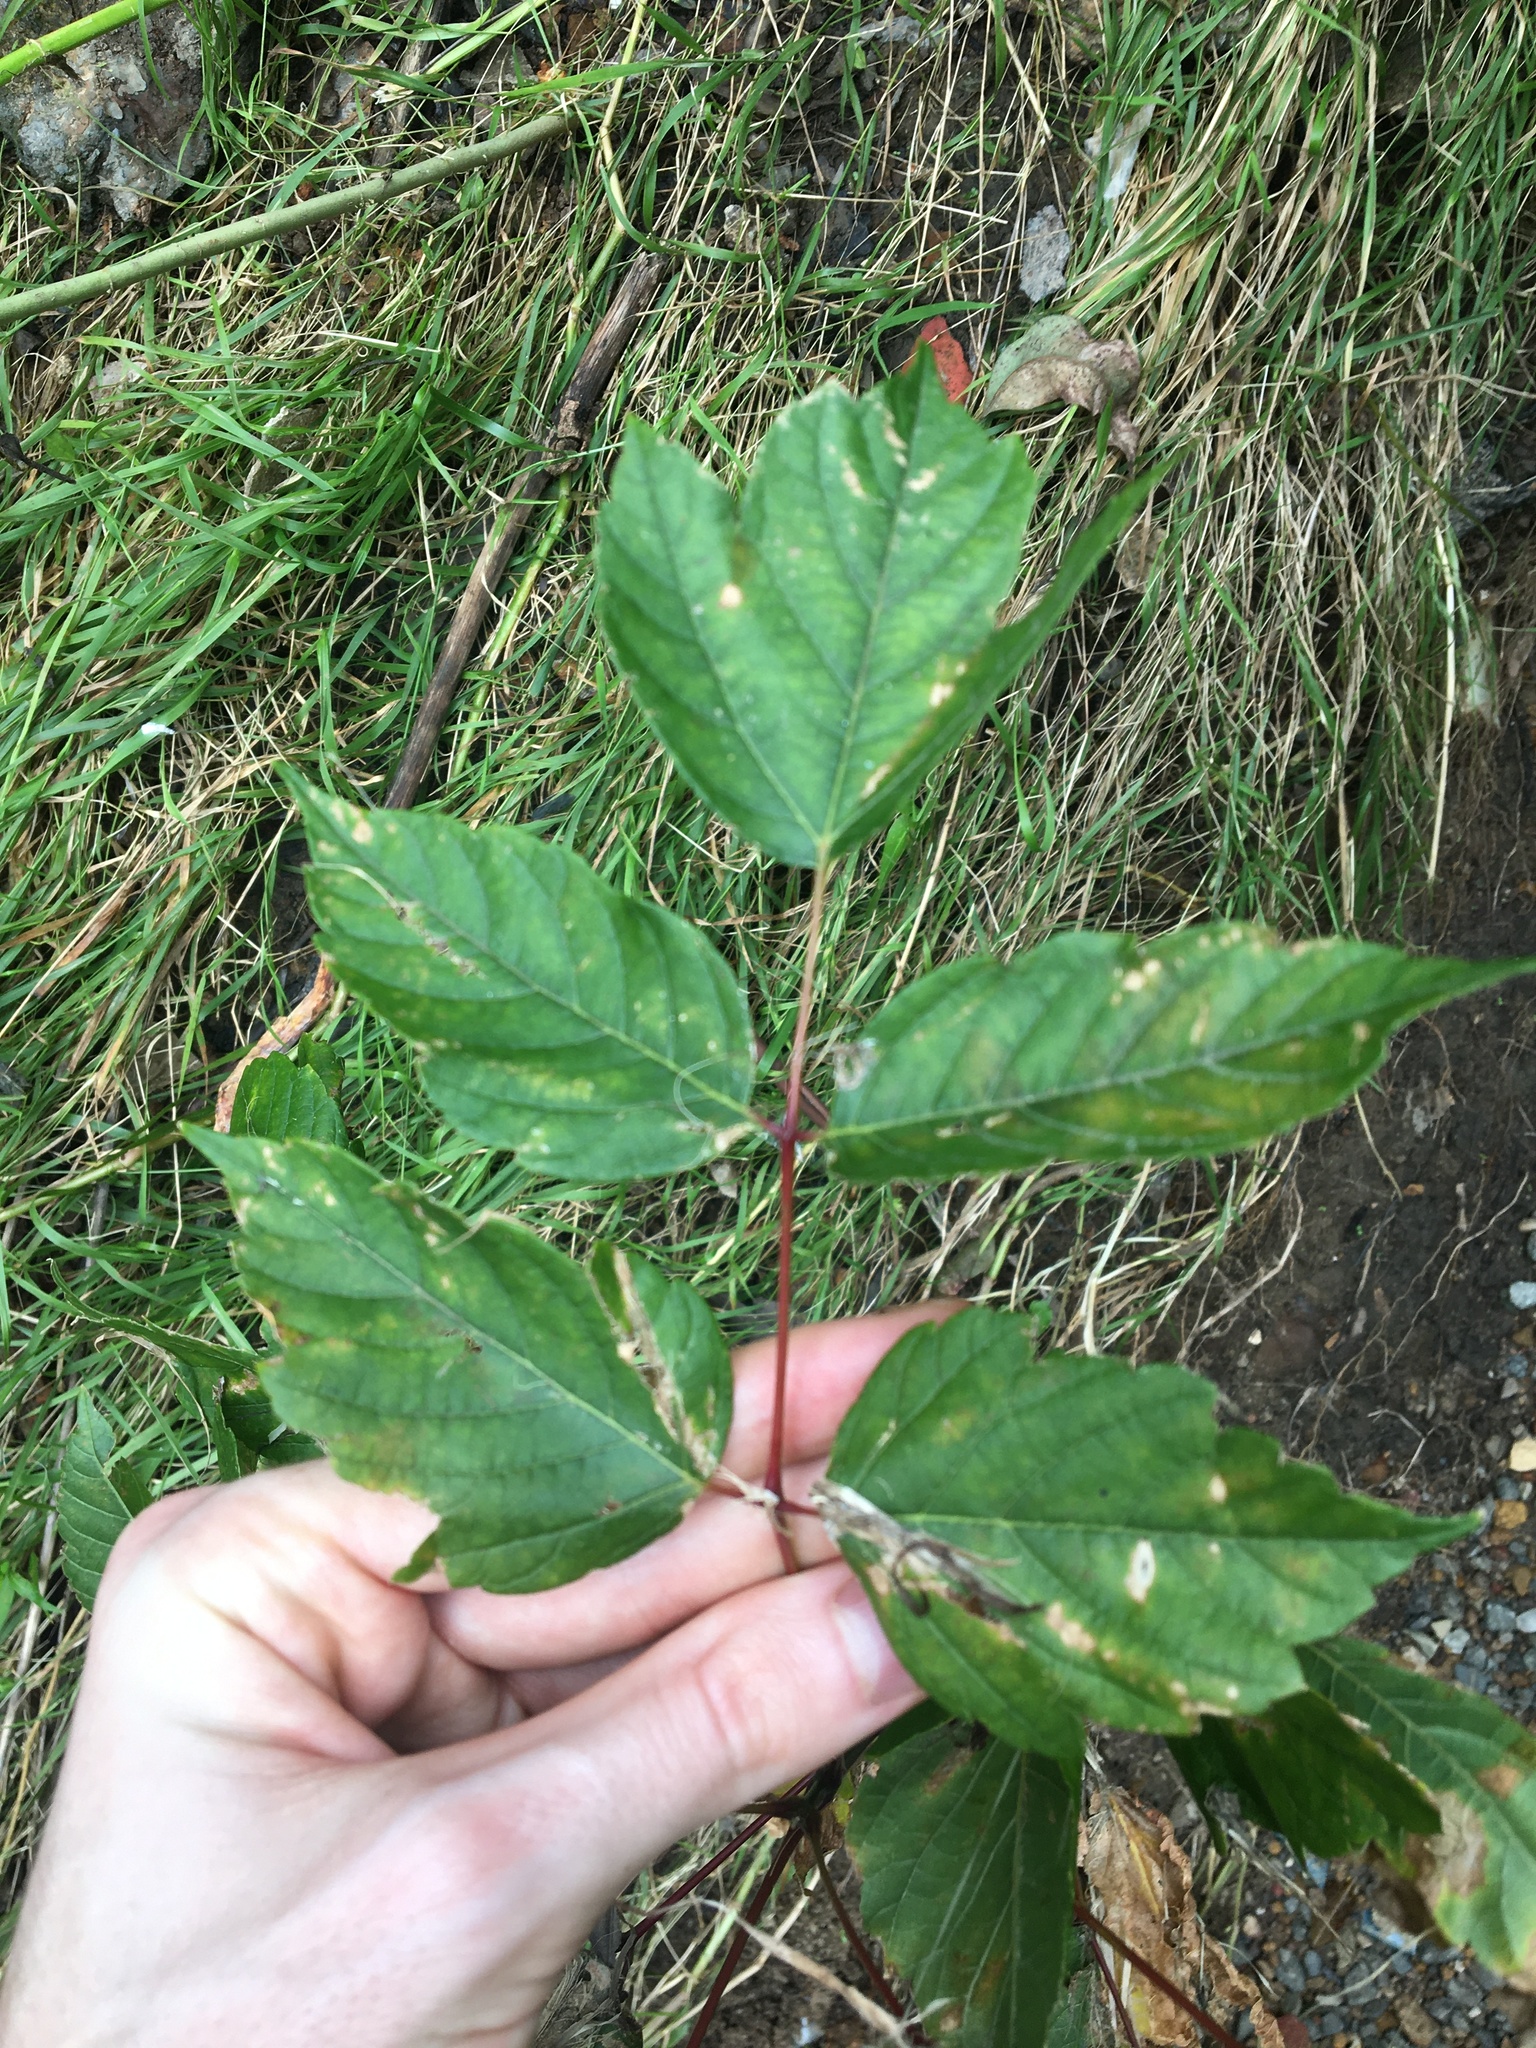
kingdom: Plantae
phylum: Tracheophyta
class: Magnoliopsida
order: Sapindales
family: Sapindaceae
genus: Acer
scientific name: Acer negundo
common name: Ashleaf maple
